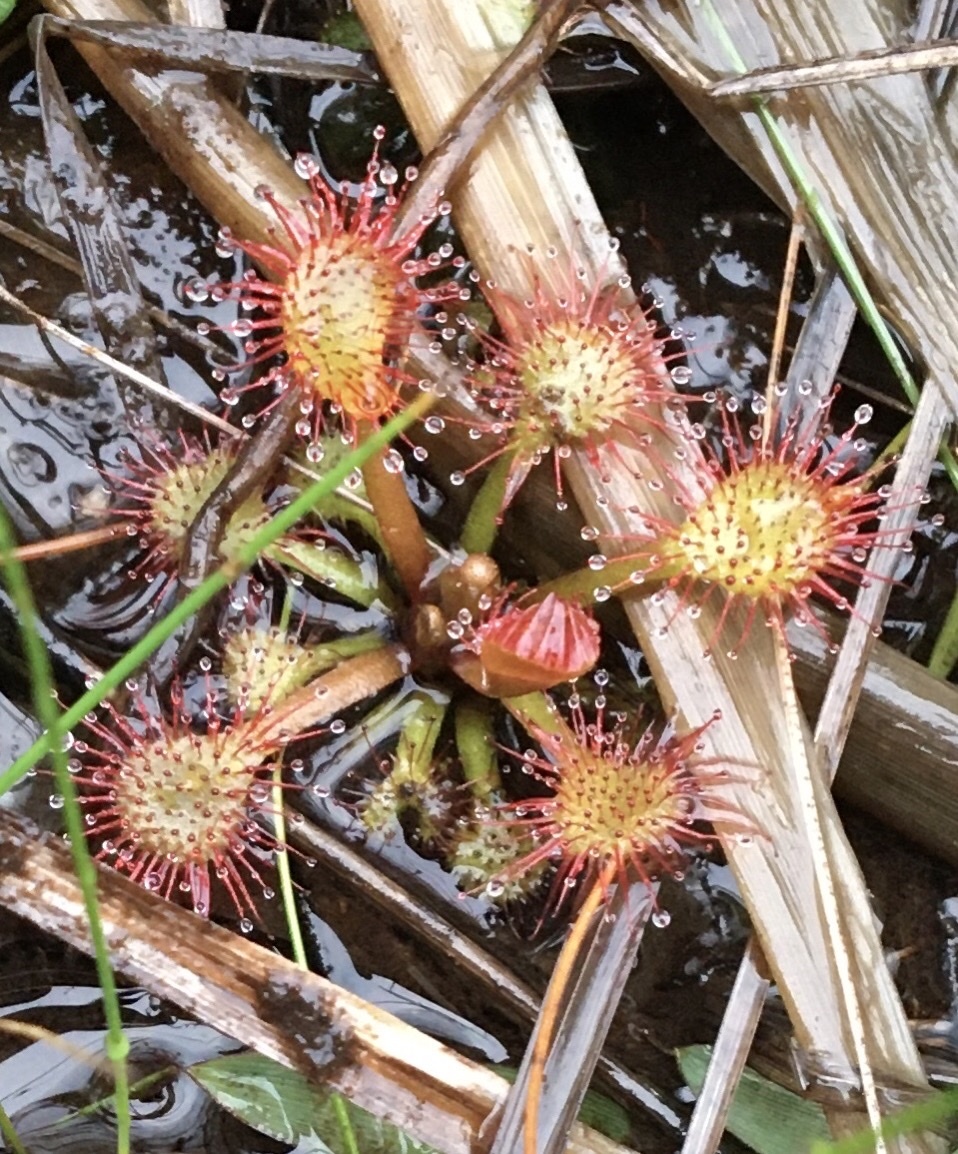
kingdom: Plantae
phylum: Tracheophyta
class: Magnoliopsida
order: Caryophyllales
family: Droseraceae
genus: Drosera
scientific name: Drosera capillaris
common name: Pink sundew
